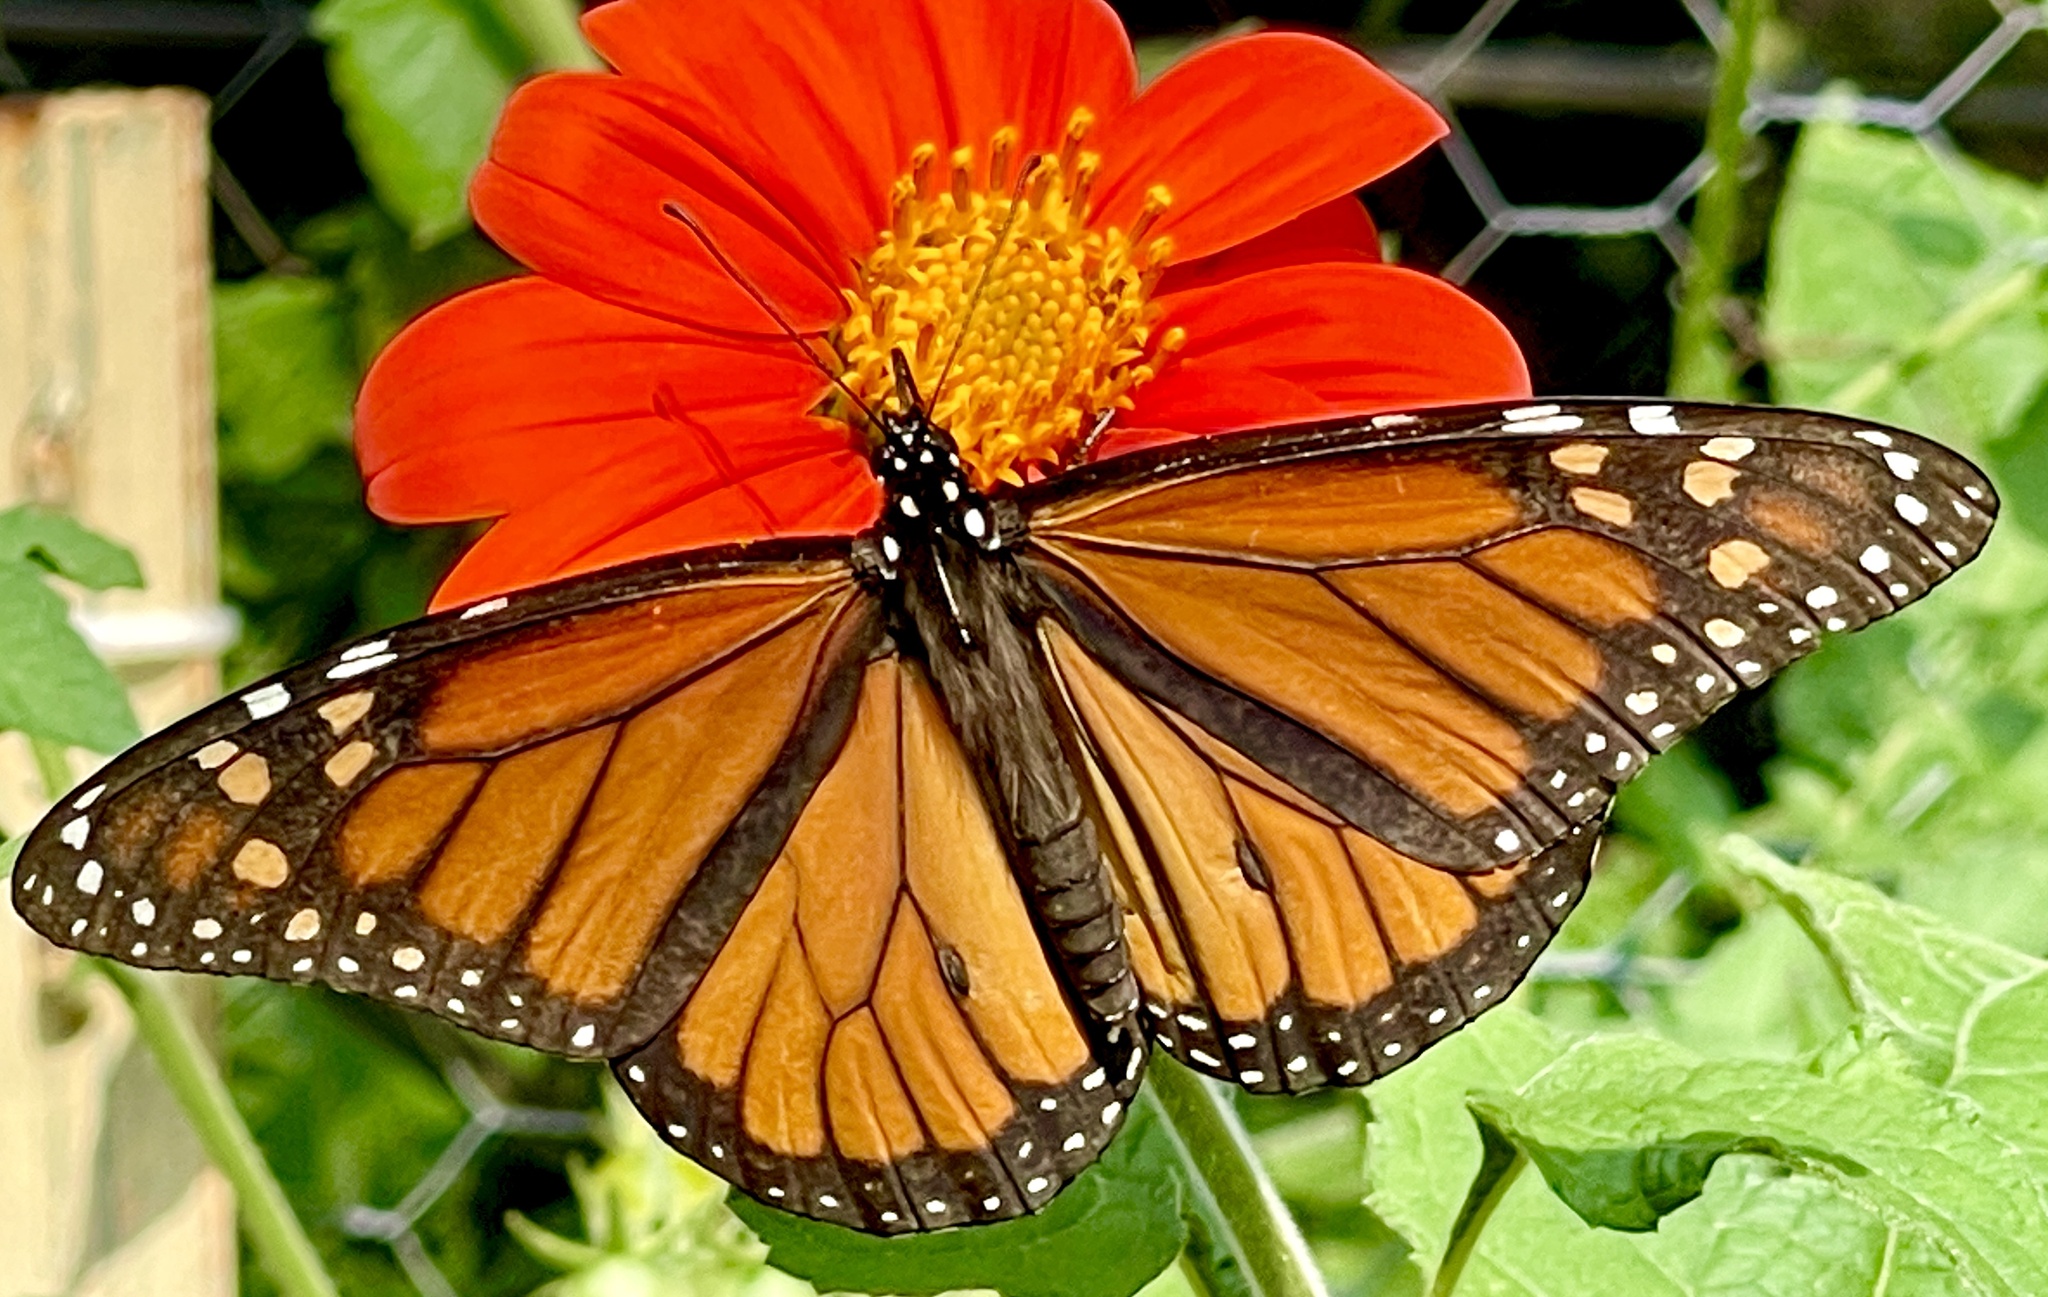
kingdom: Animalia
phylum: Arthropoda
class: Insecta
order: Lepidoptera
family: Nymphalidae
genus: Danaus
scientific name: Danaus plexippus
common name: Monarch
